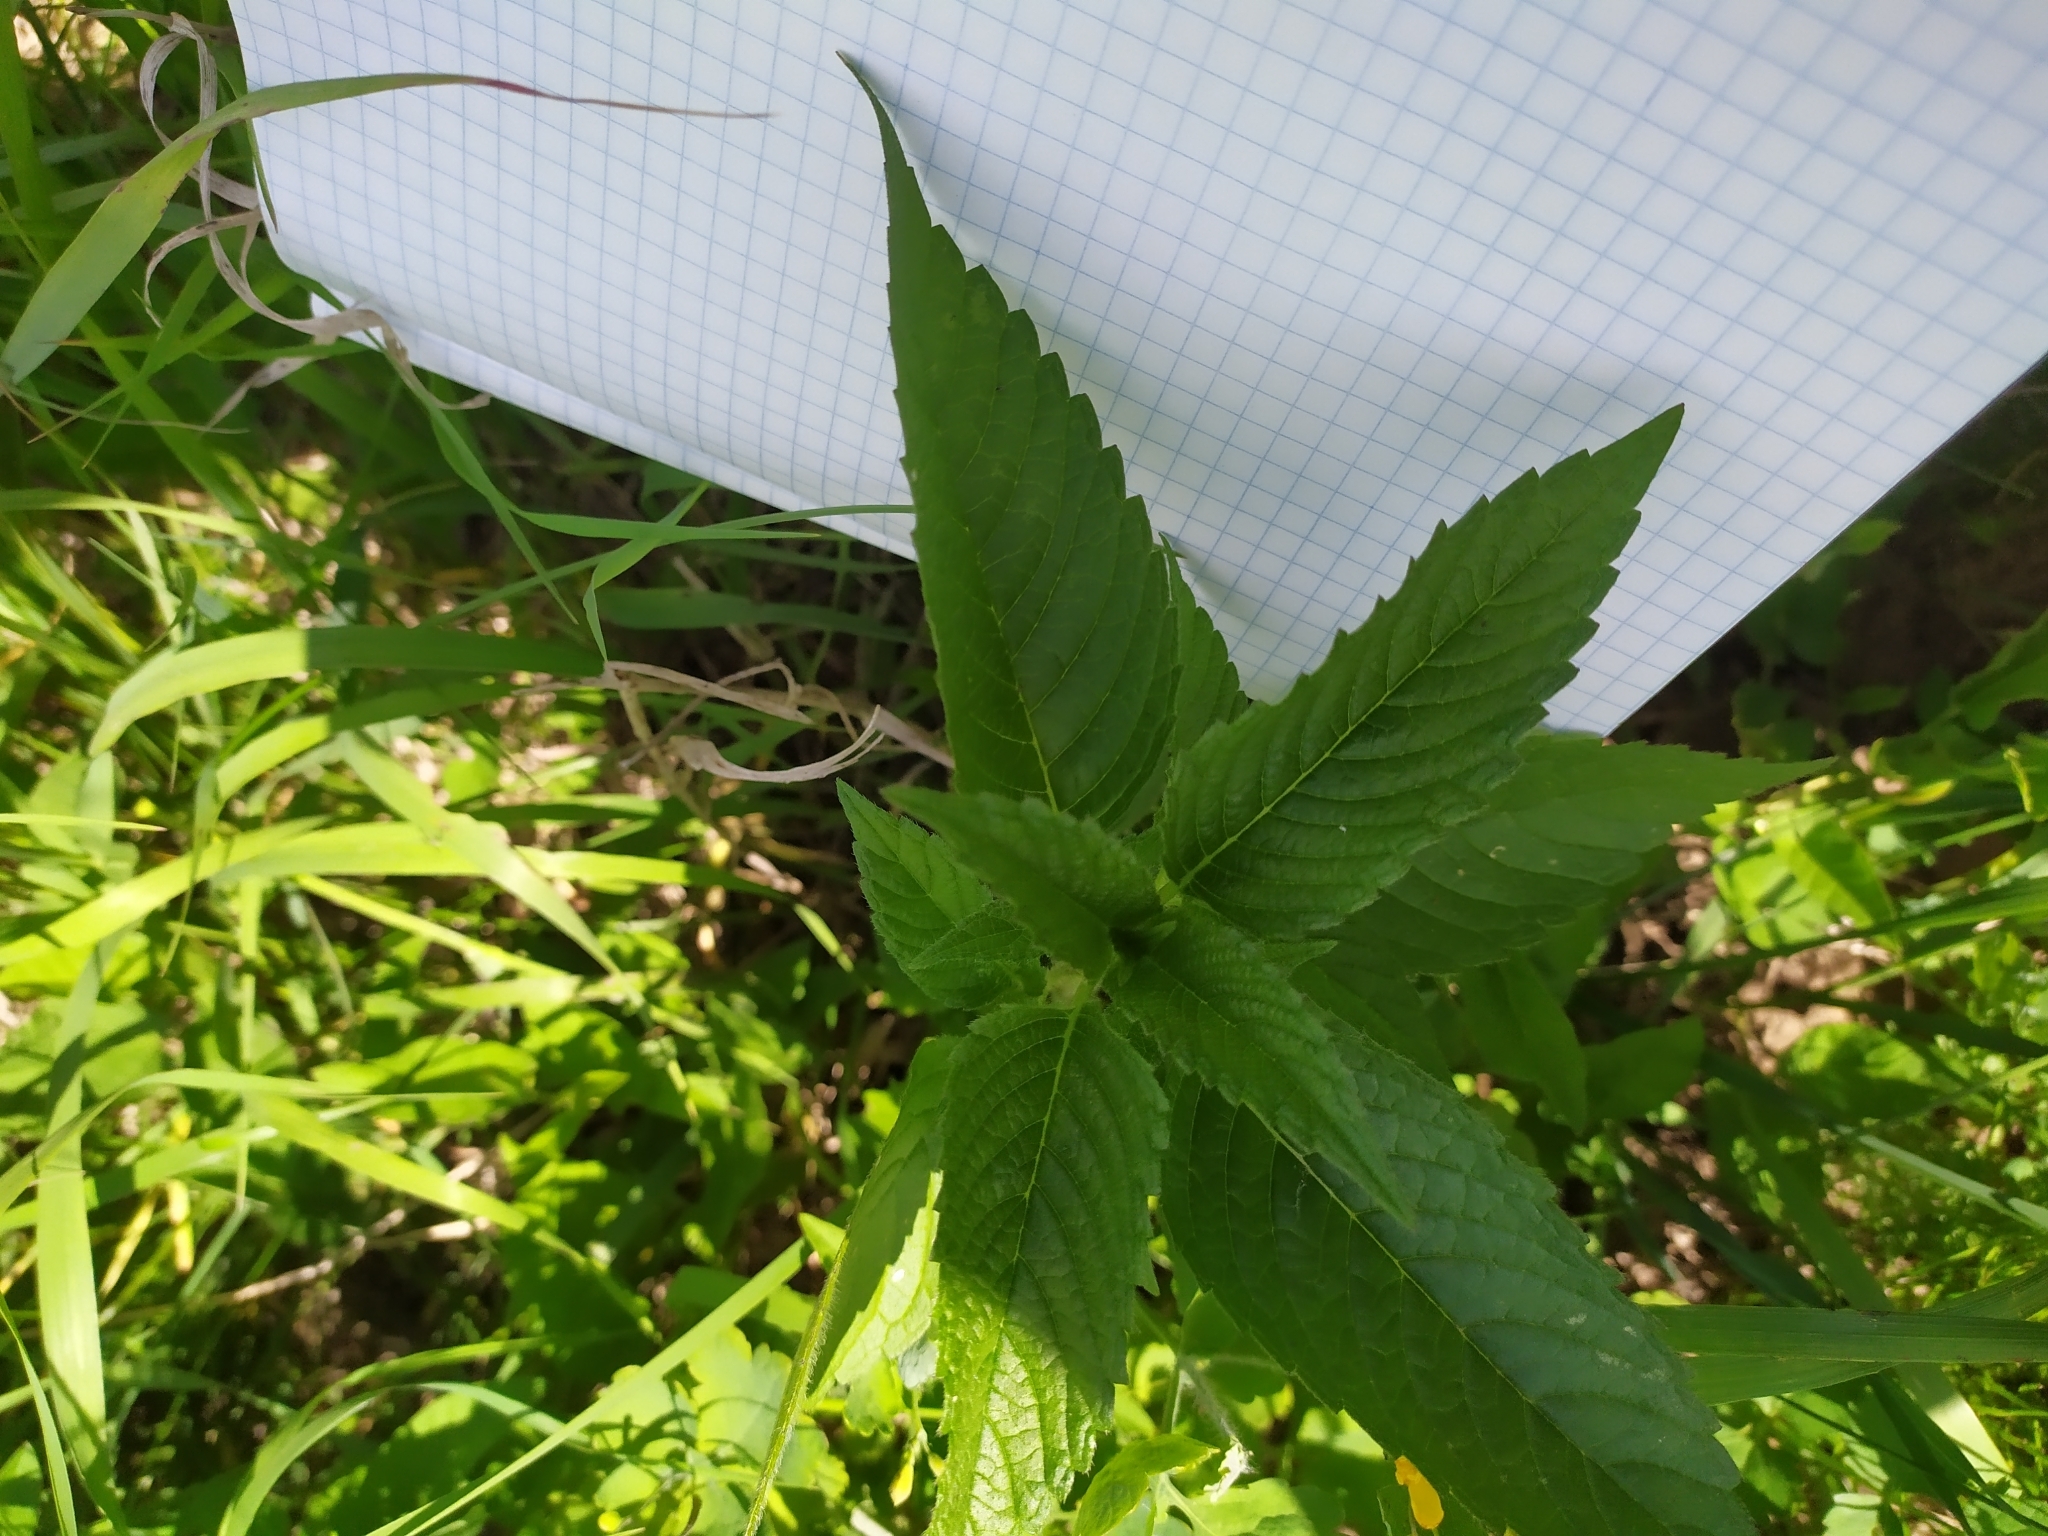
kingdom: Plantae
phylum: Tracheophyta
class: Magnoliopsida
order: Lamiales
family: Lamiaceae
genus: Galeopsis
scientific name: Galeopsis
